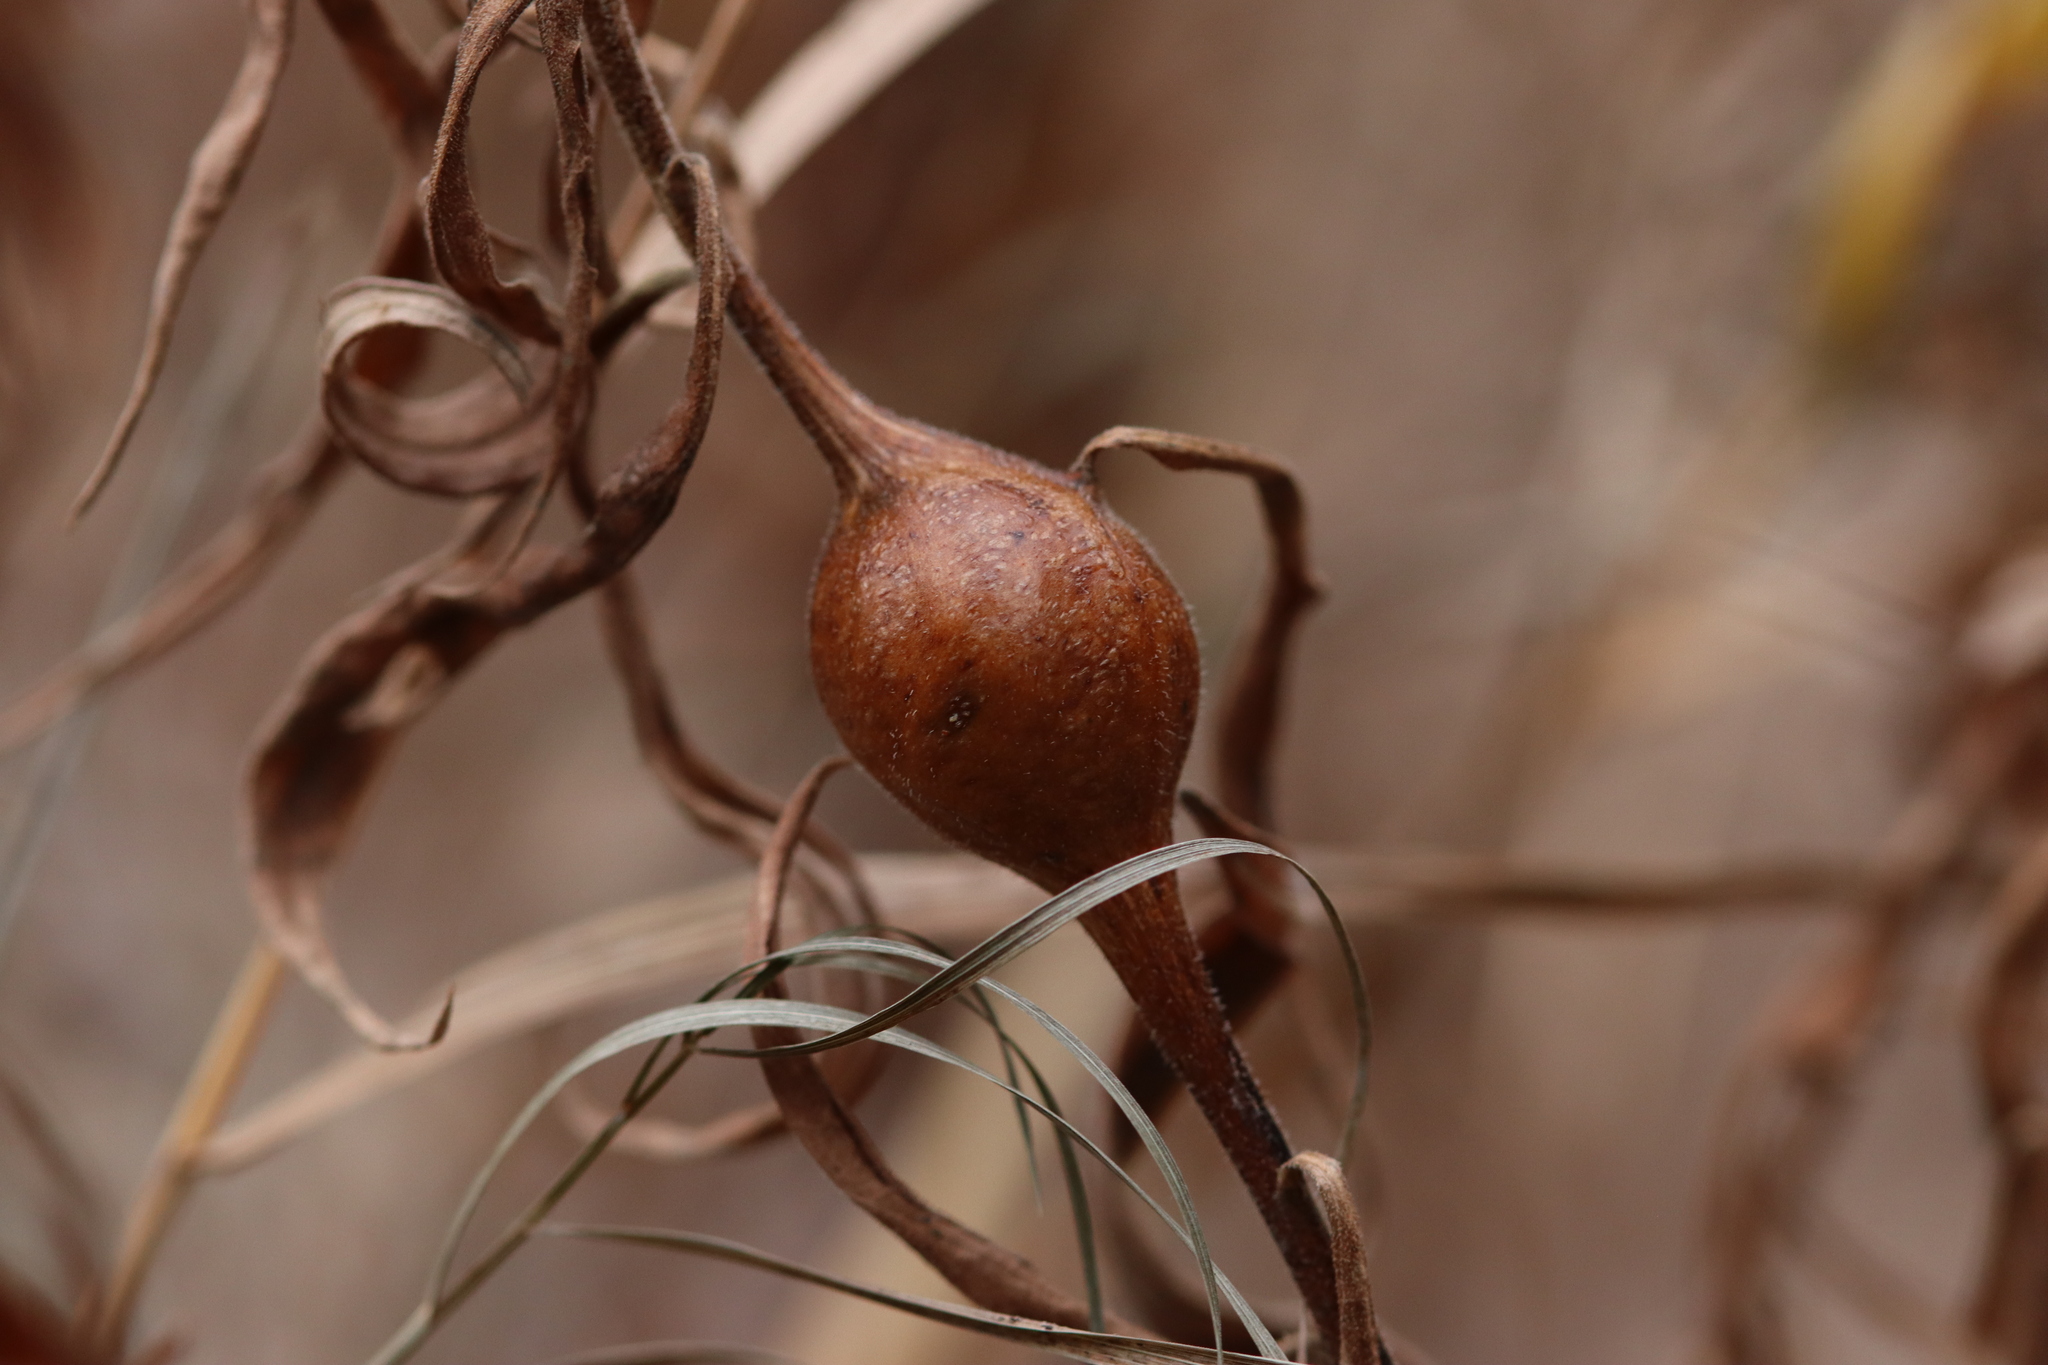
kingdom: Animalia
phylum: Arthropoda
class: Insecta
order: Diptera
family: Tephritidae
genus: Eurosta
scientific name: Eurosta solidaginis
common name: Goldenrod gall fly
